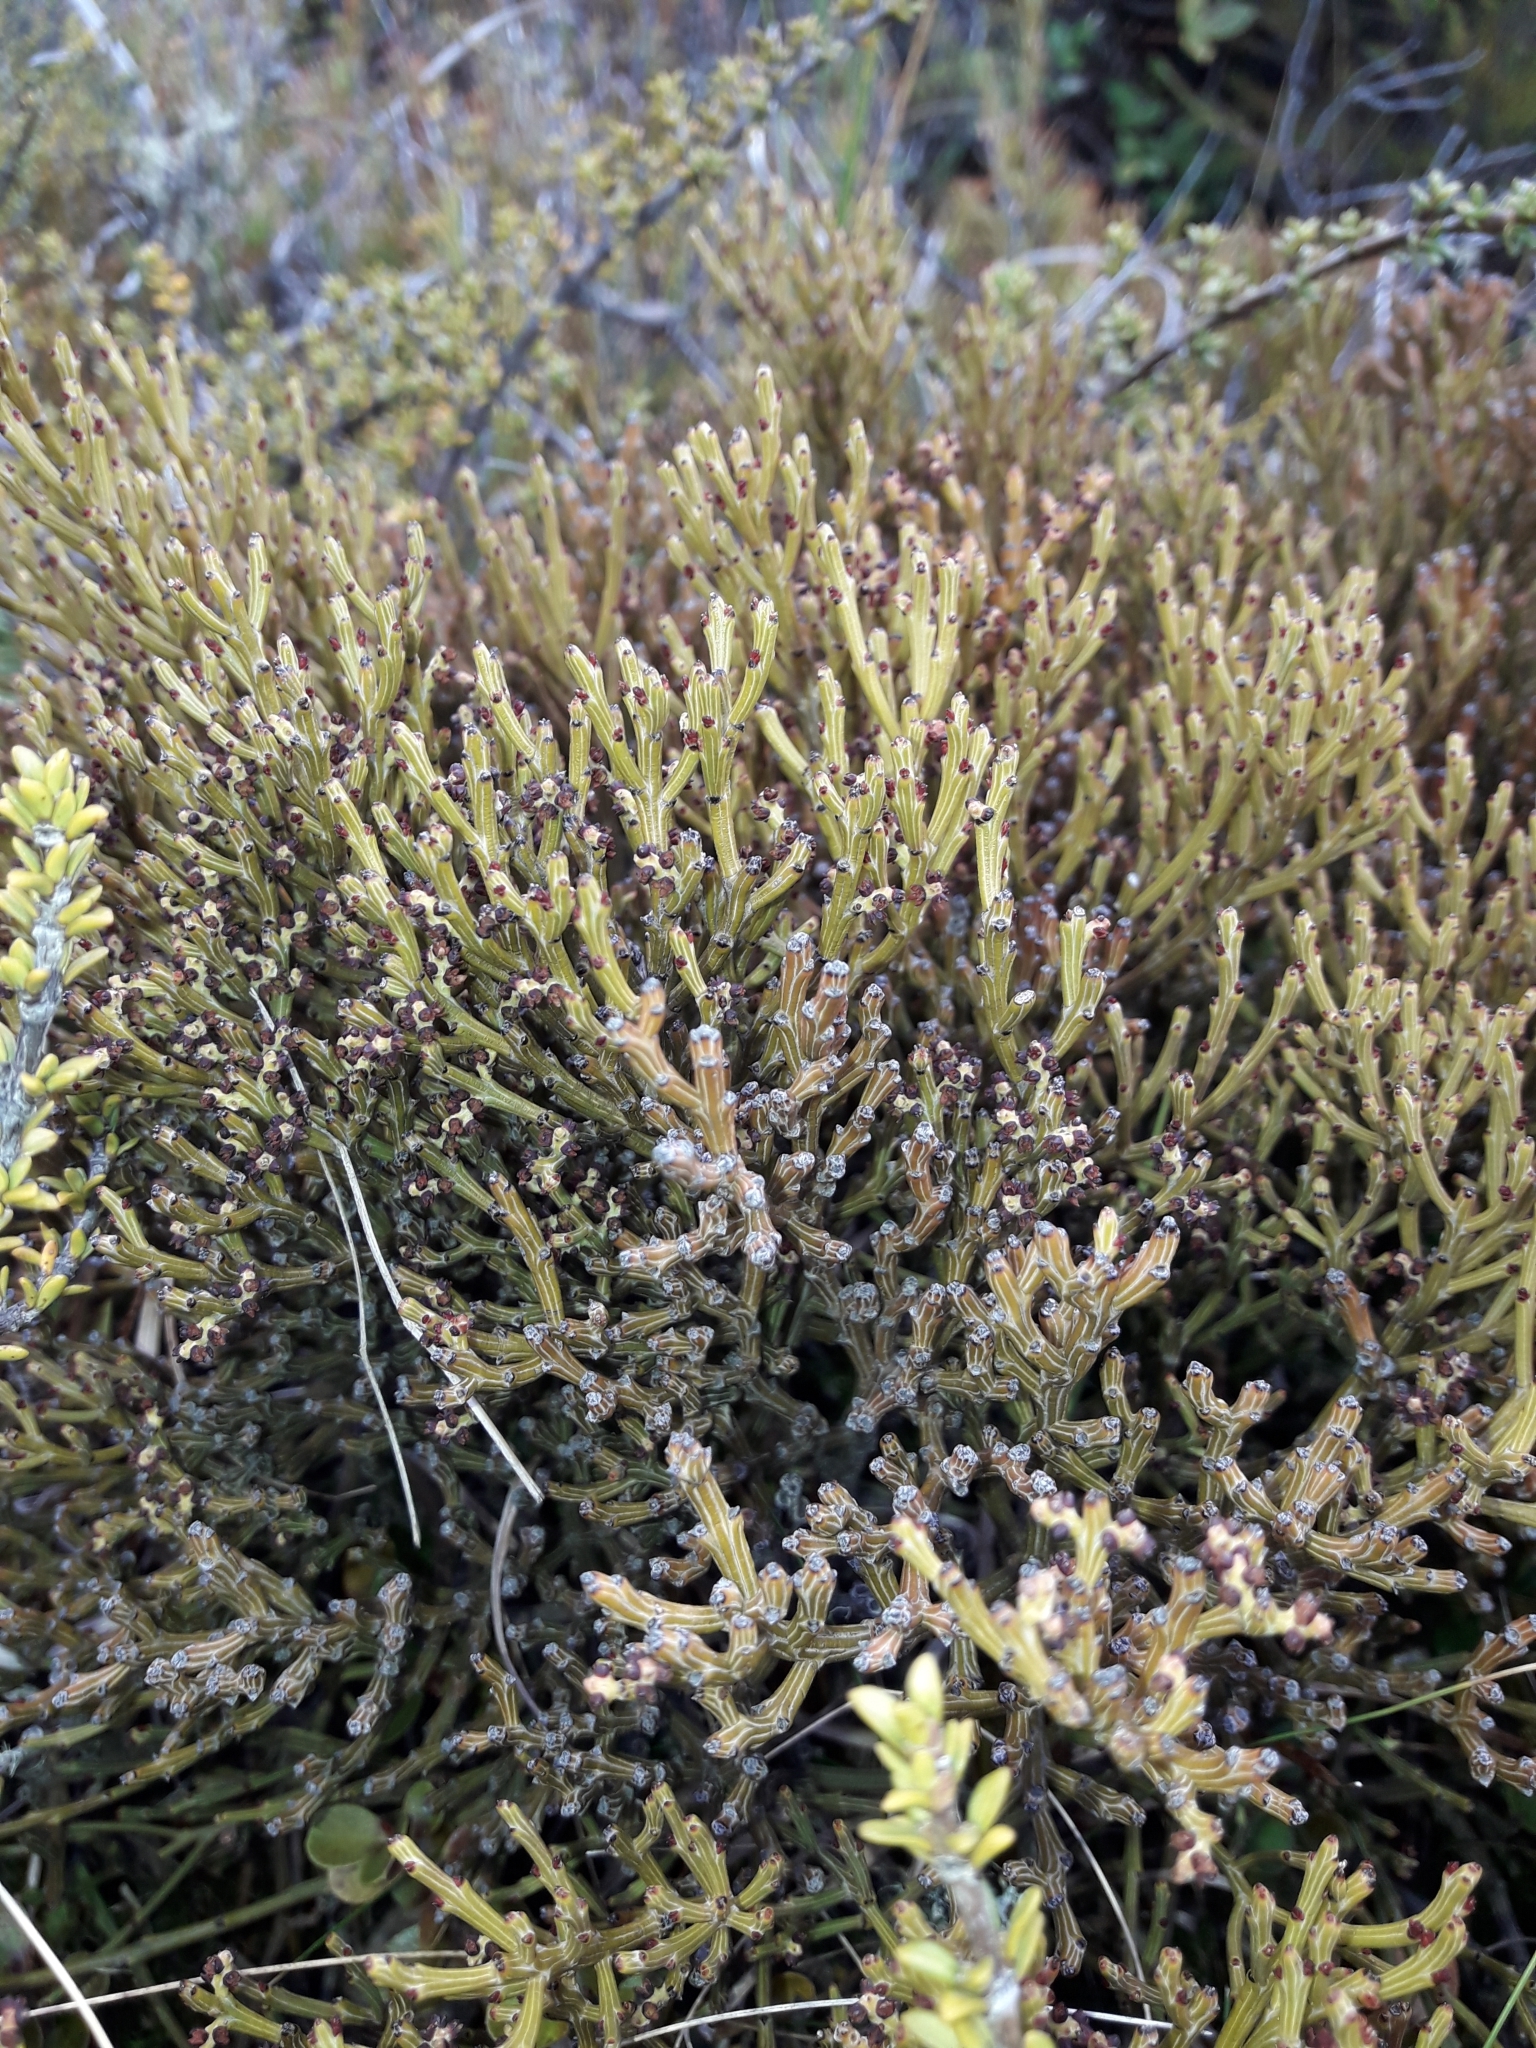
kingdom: Plantae
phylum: Tracheophyta
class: Magnoliopsida
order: Santalales
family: Santalaceae
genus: Exocarpos
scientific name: Exocarpos bidwillii
